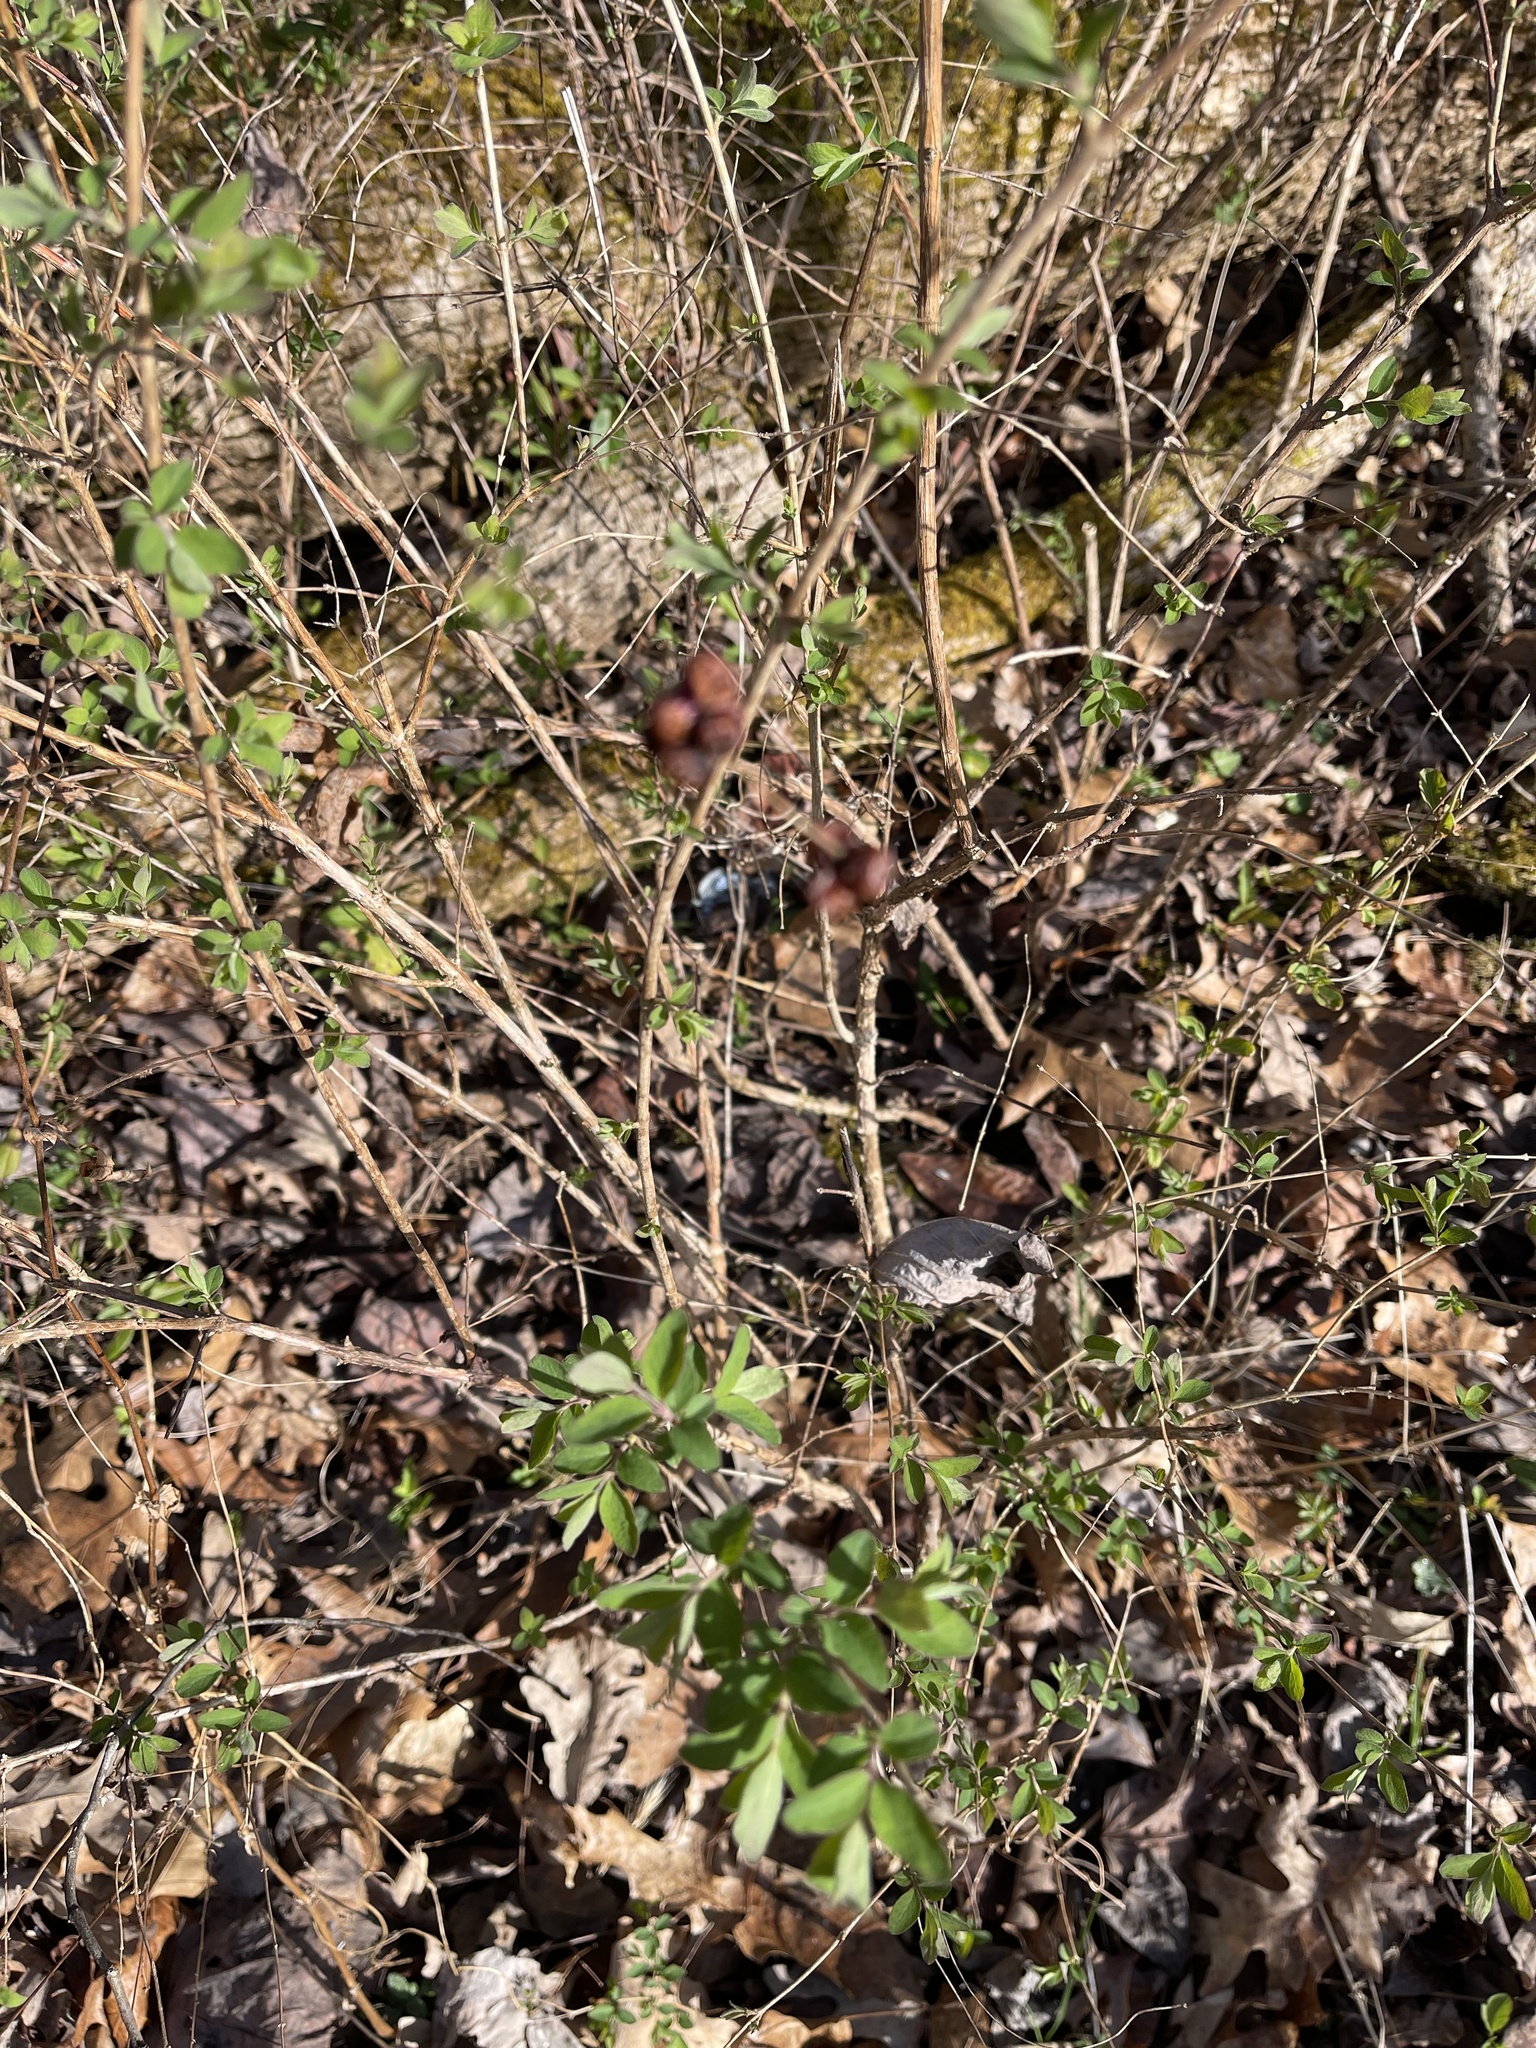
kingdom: Plantae
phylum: Tracheophyta
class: Magnoliopsida
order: Dipsacales
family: Caprifoliaceae
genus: Symphoricarpos
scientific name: Symphoricarpos orbiculatus
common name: Coralberry
